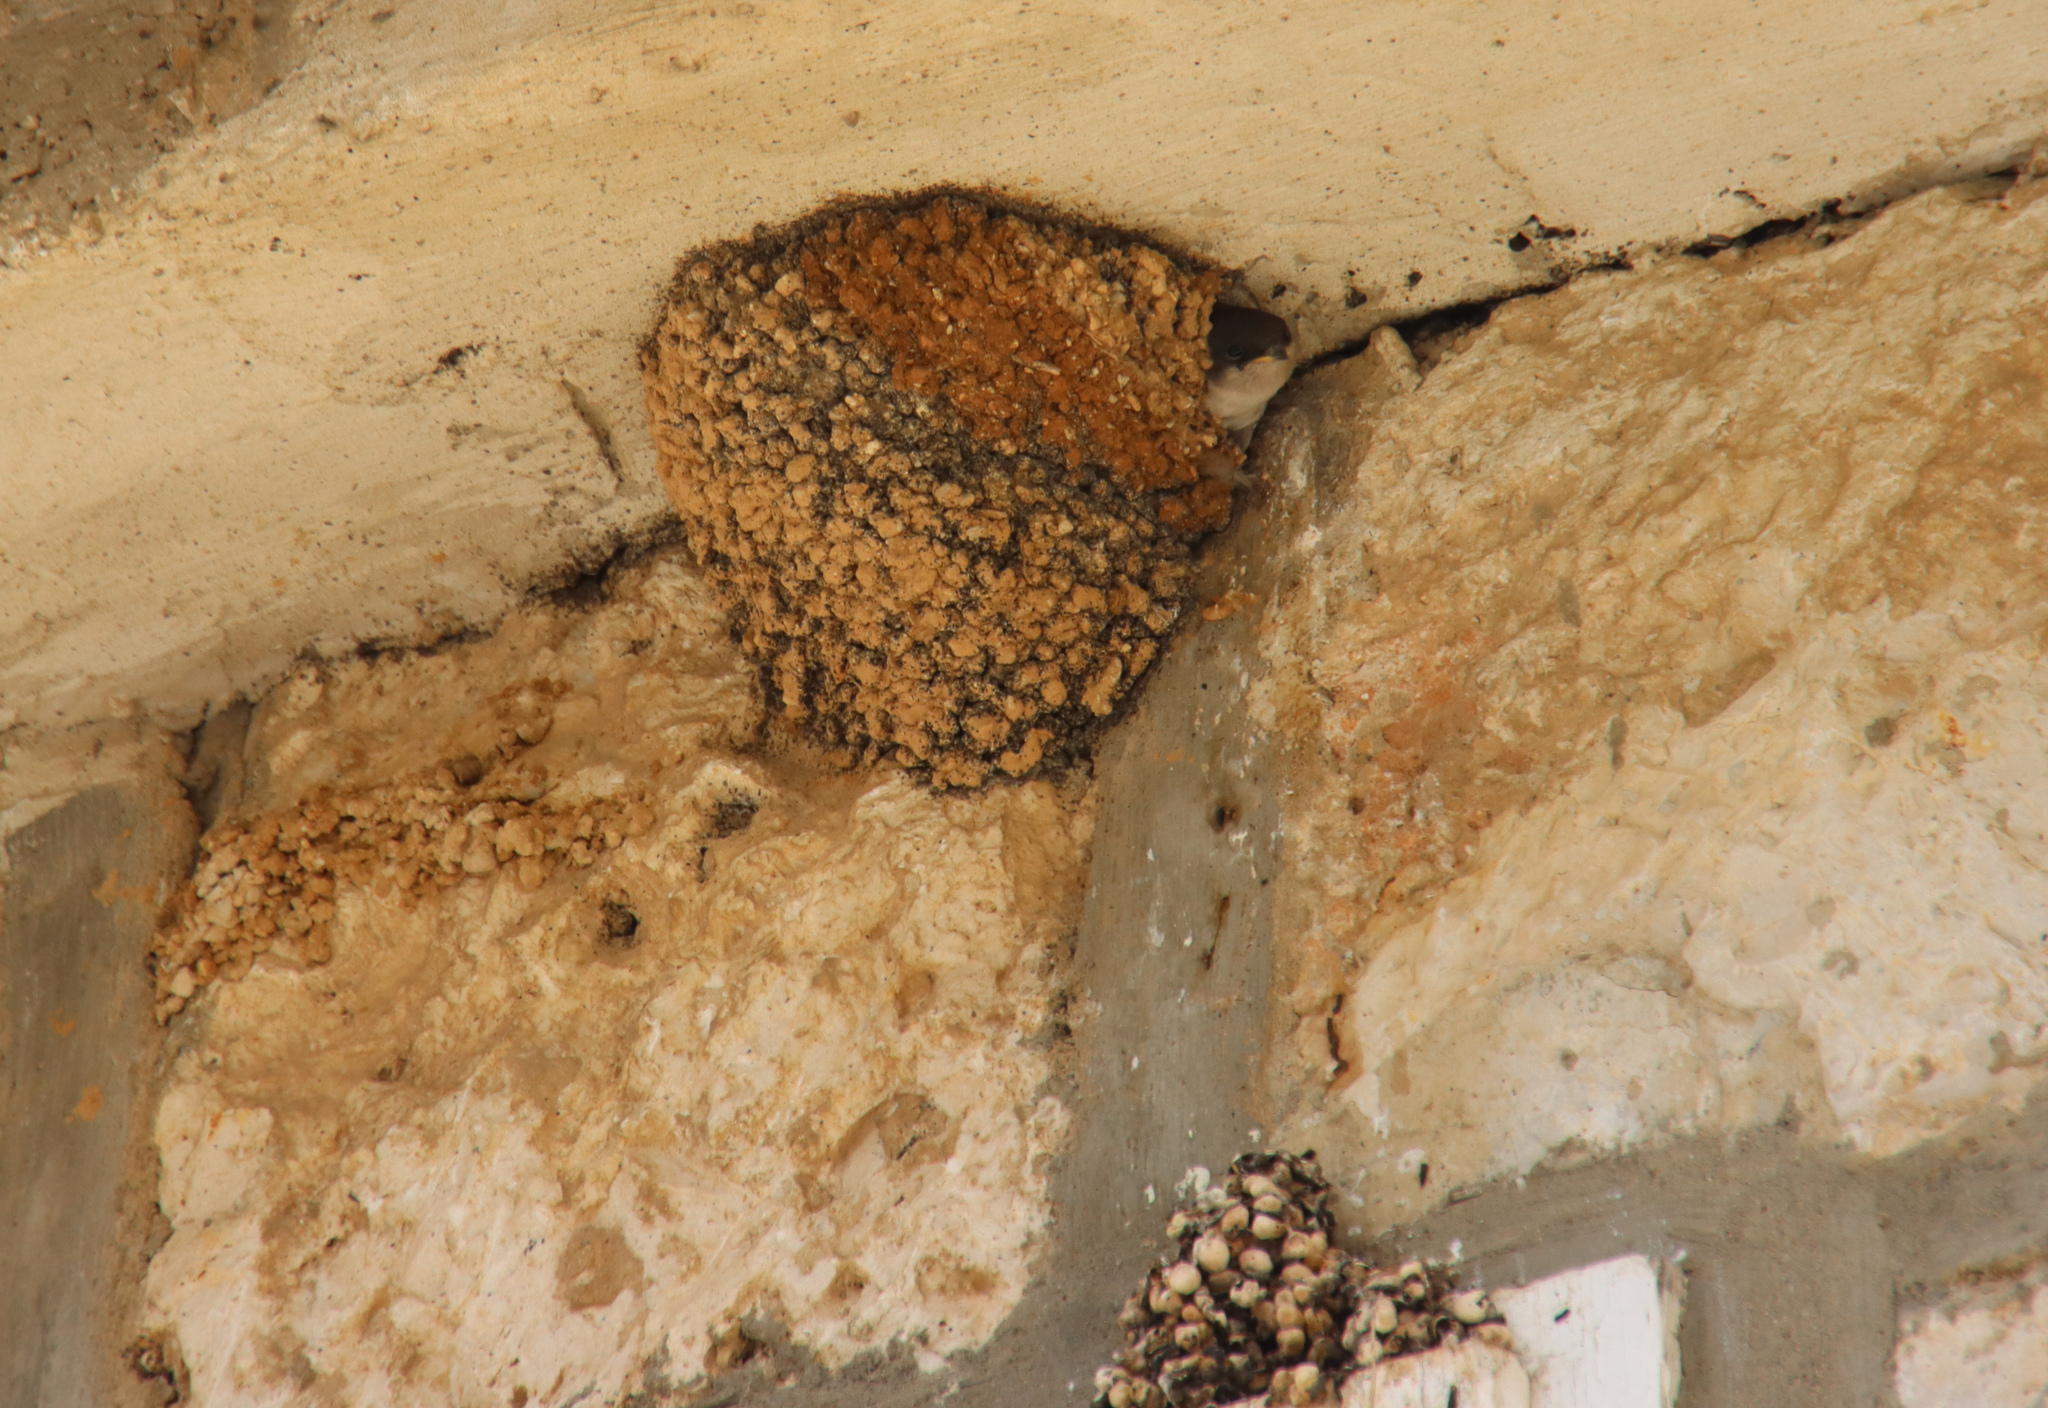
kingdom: Animalia
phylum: Chordata
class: Aves
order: Passeriformes
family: Hirundinidae
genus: Delichon
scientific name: Delichon urbicum
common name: Common house martin
